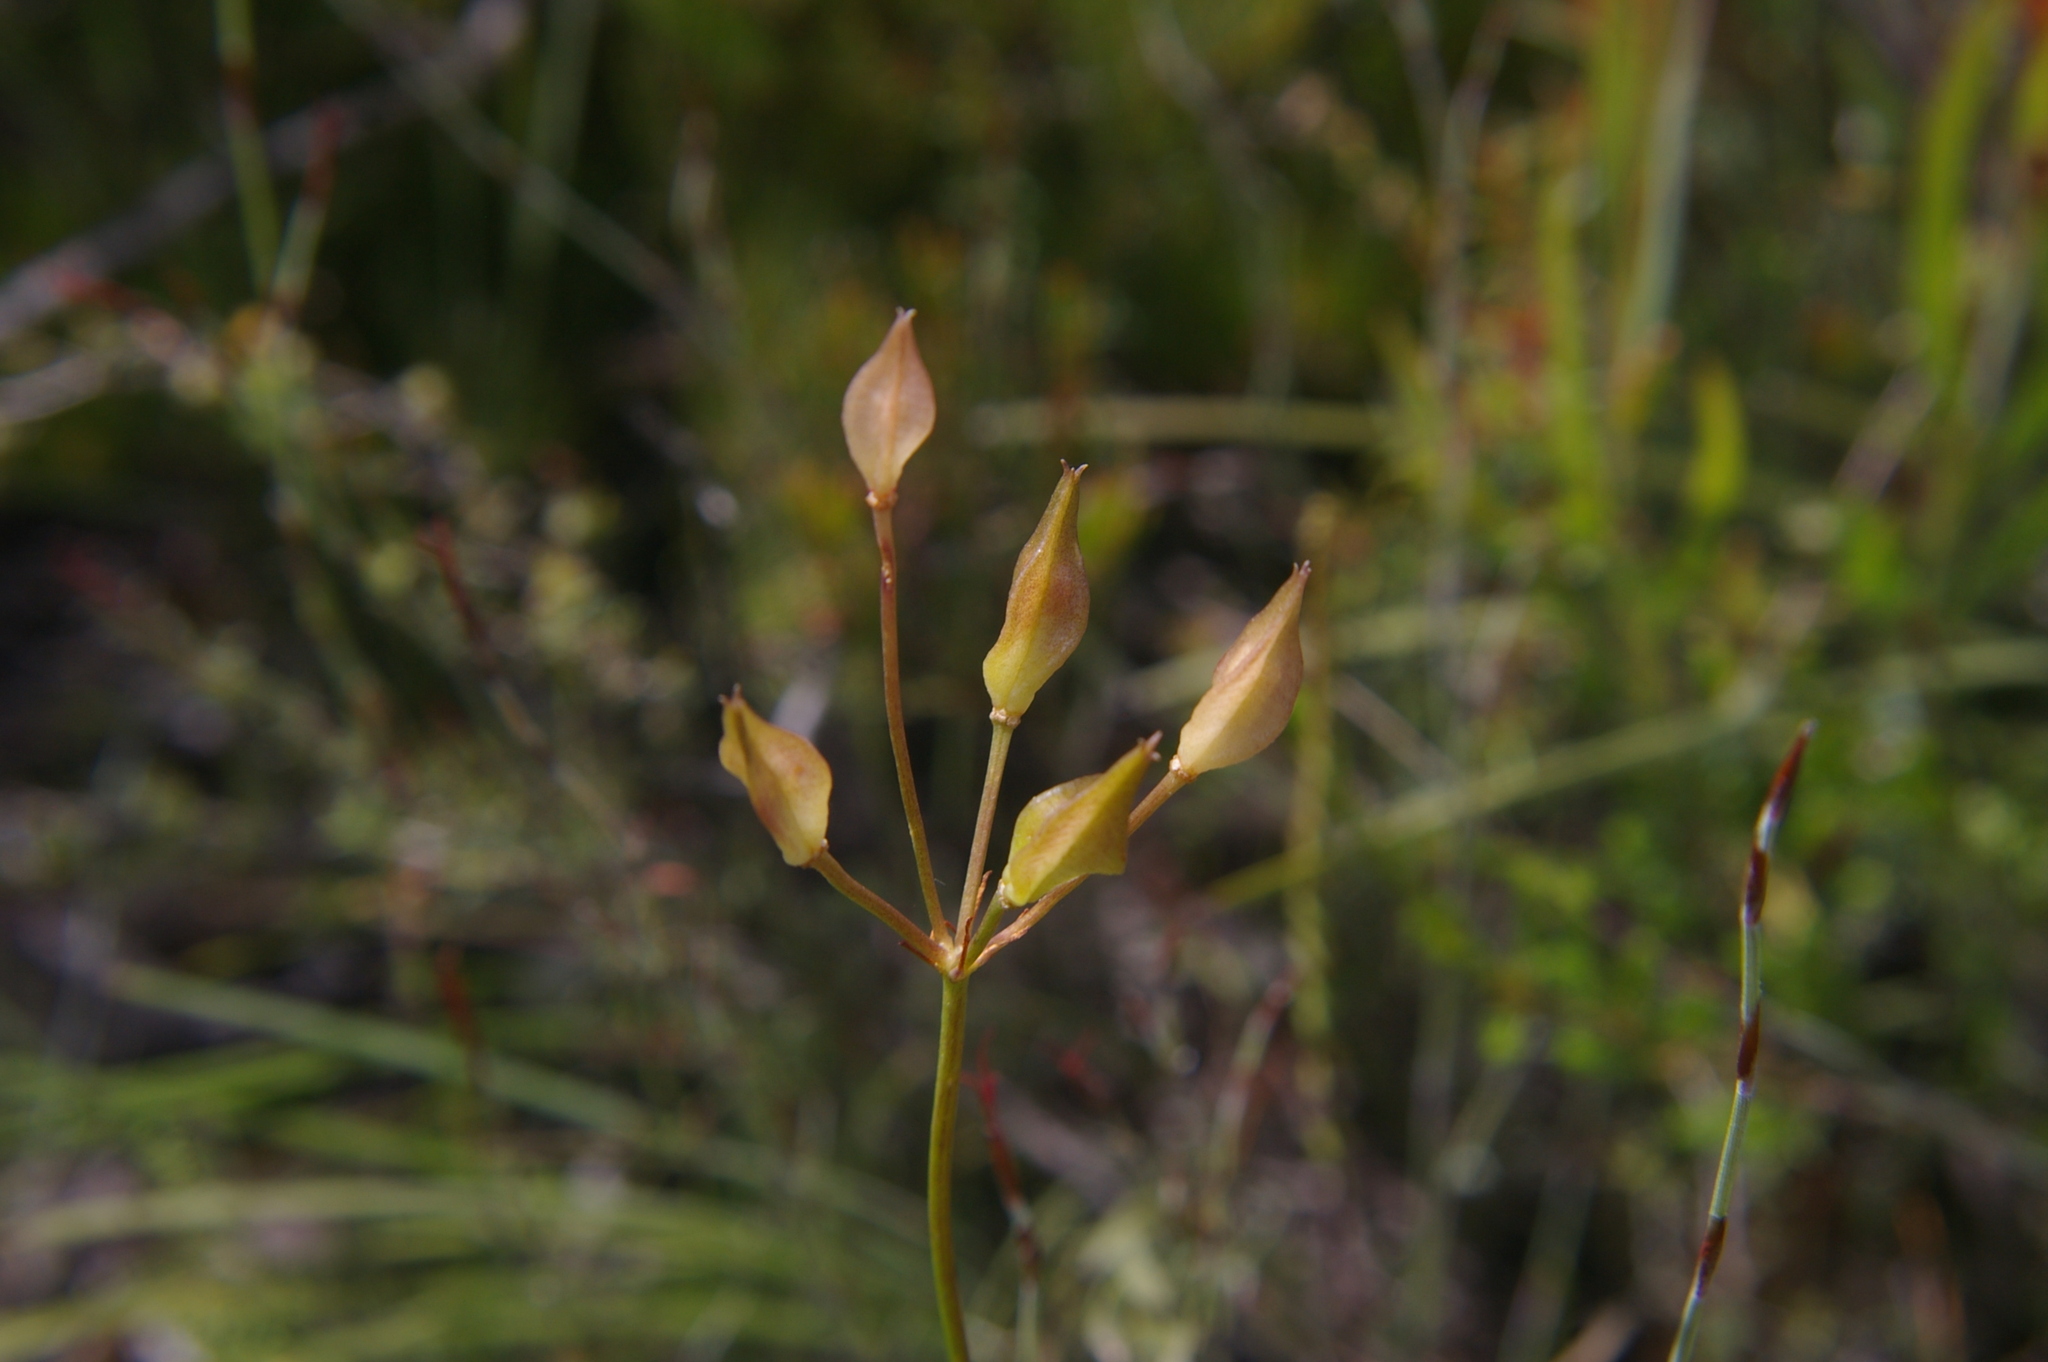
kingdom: Plantae
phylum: Tracheophyta
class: Liliopsida
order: Liliales
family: Colchicaceae
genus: Burchardia
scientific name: Burchardia umbellata
